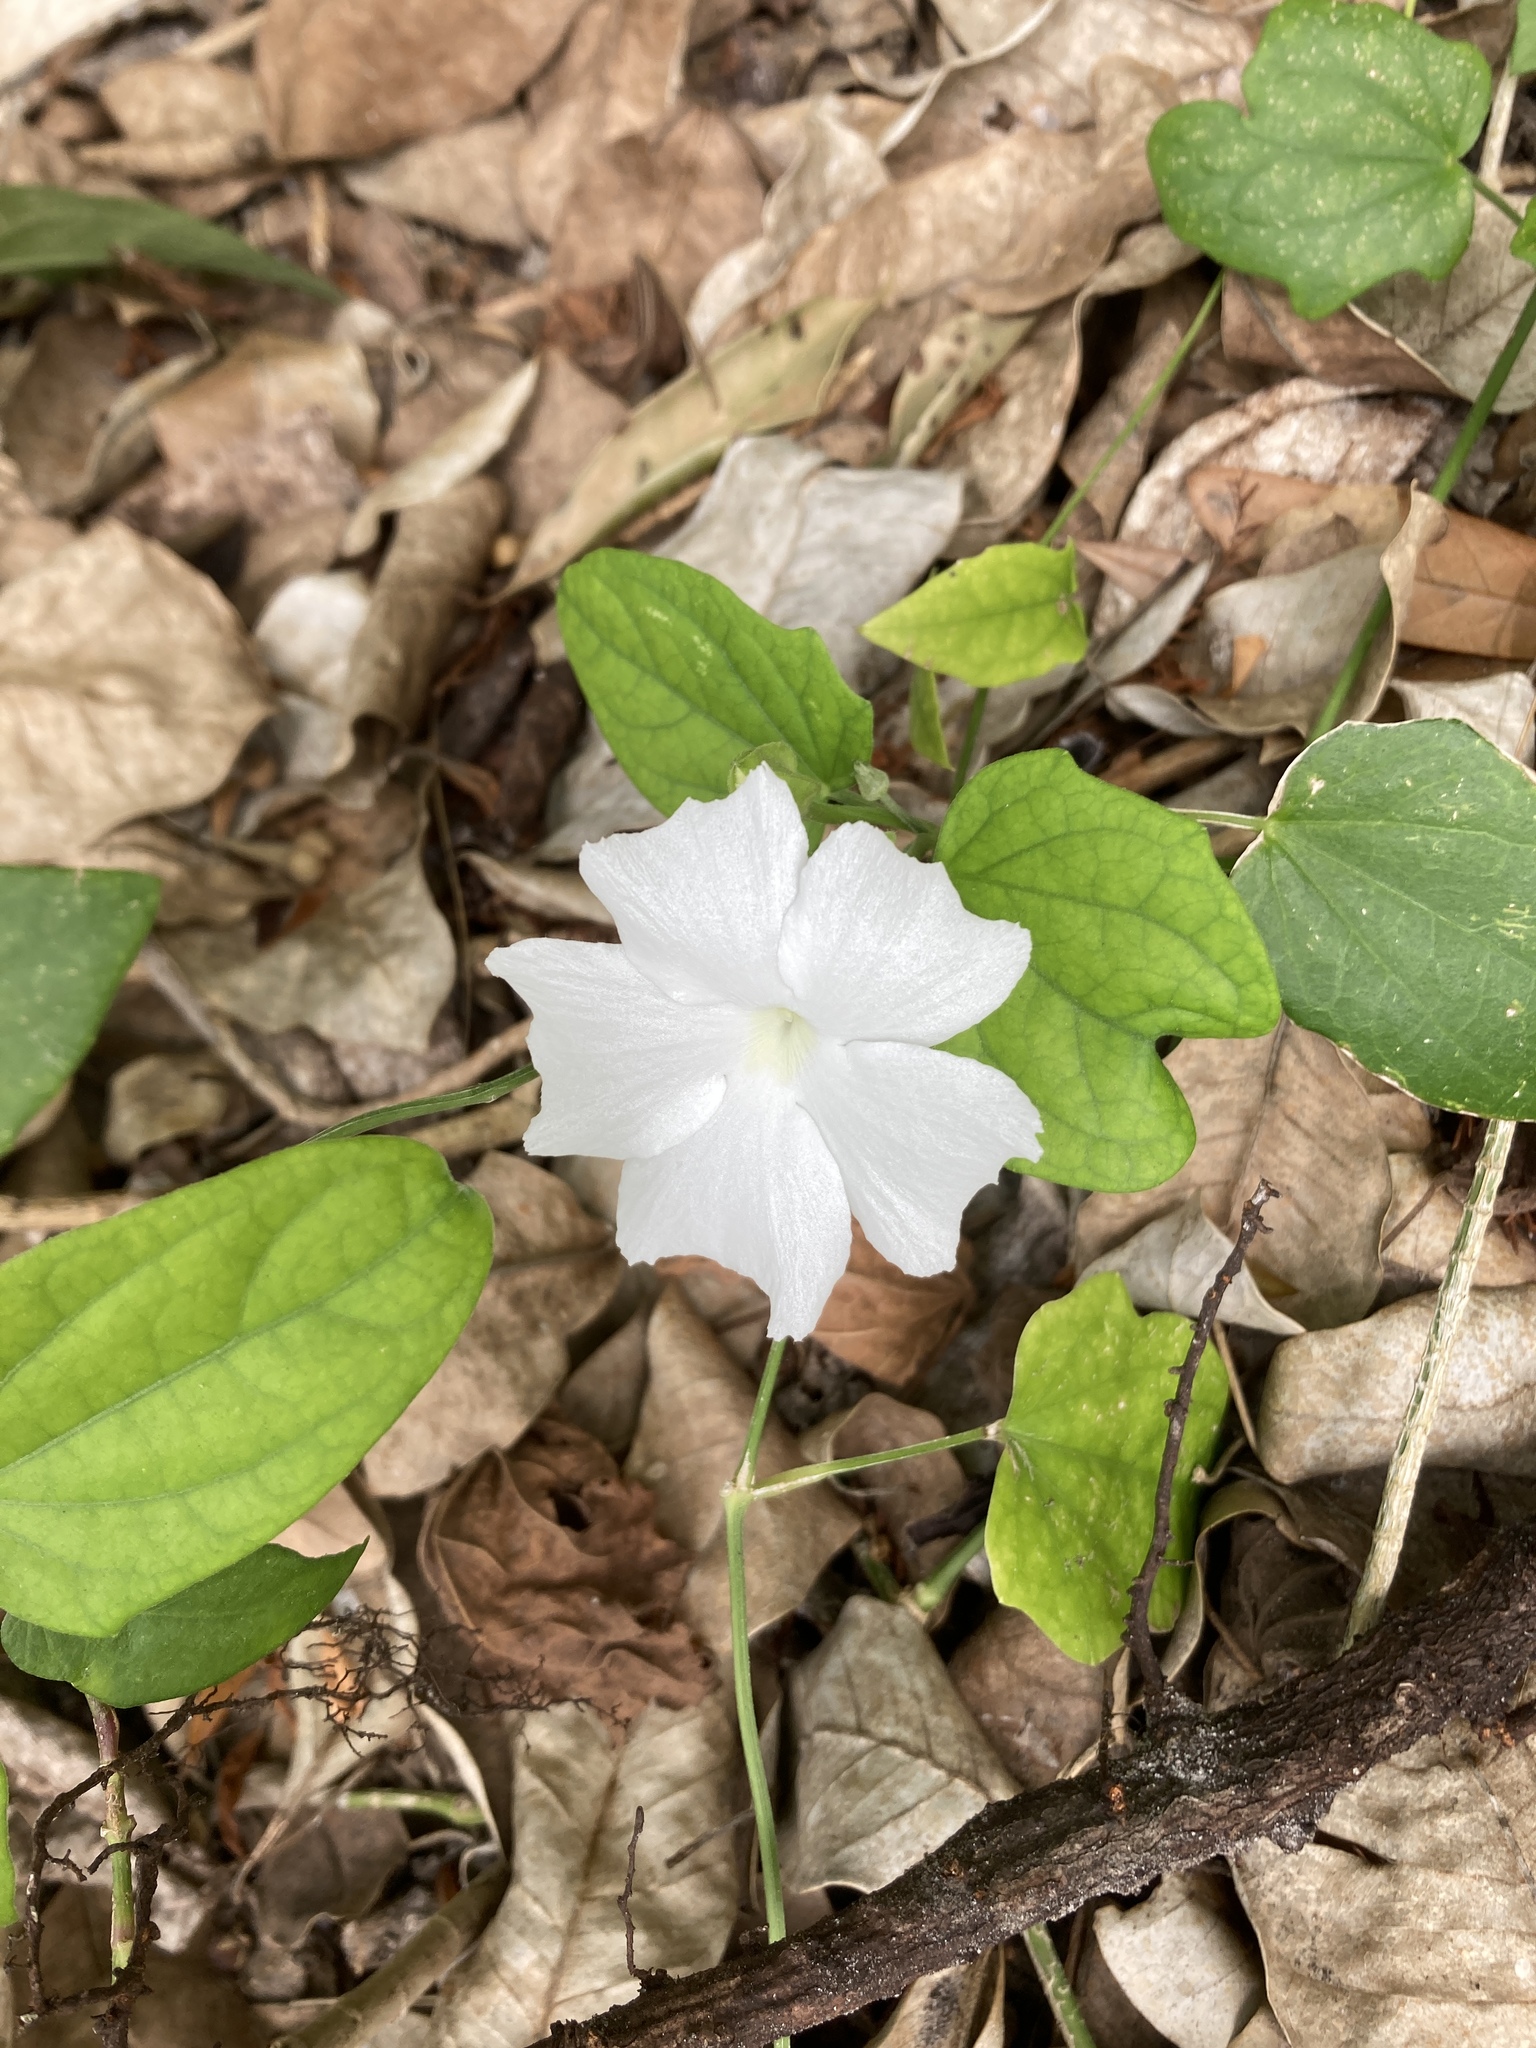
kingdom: Plantae
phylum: Tracheophyta
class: Magnoliopsida
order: Lamiales
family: Acanthaceae
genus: Thunbergia
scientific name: Thunbergia fragrans
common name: Whitelady
